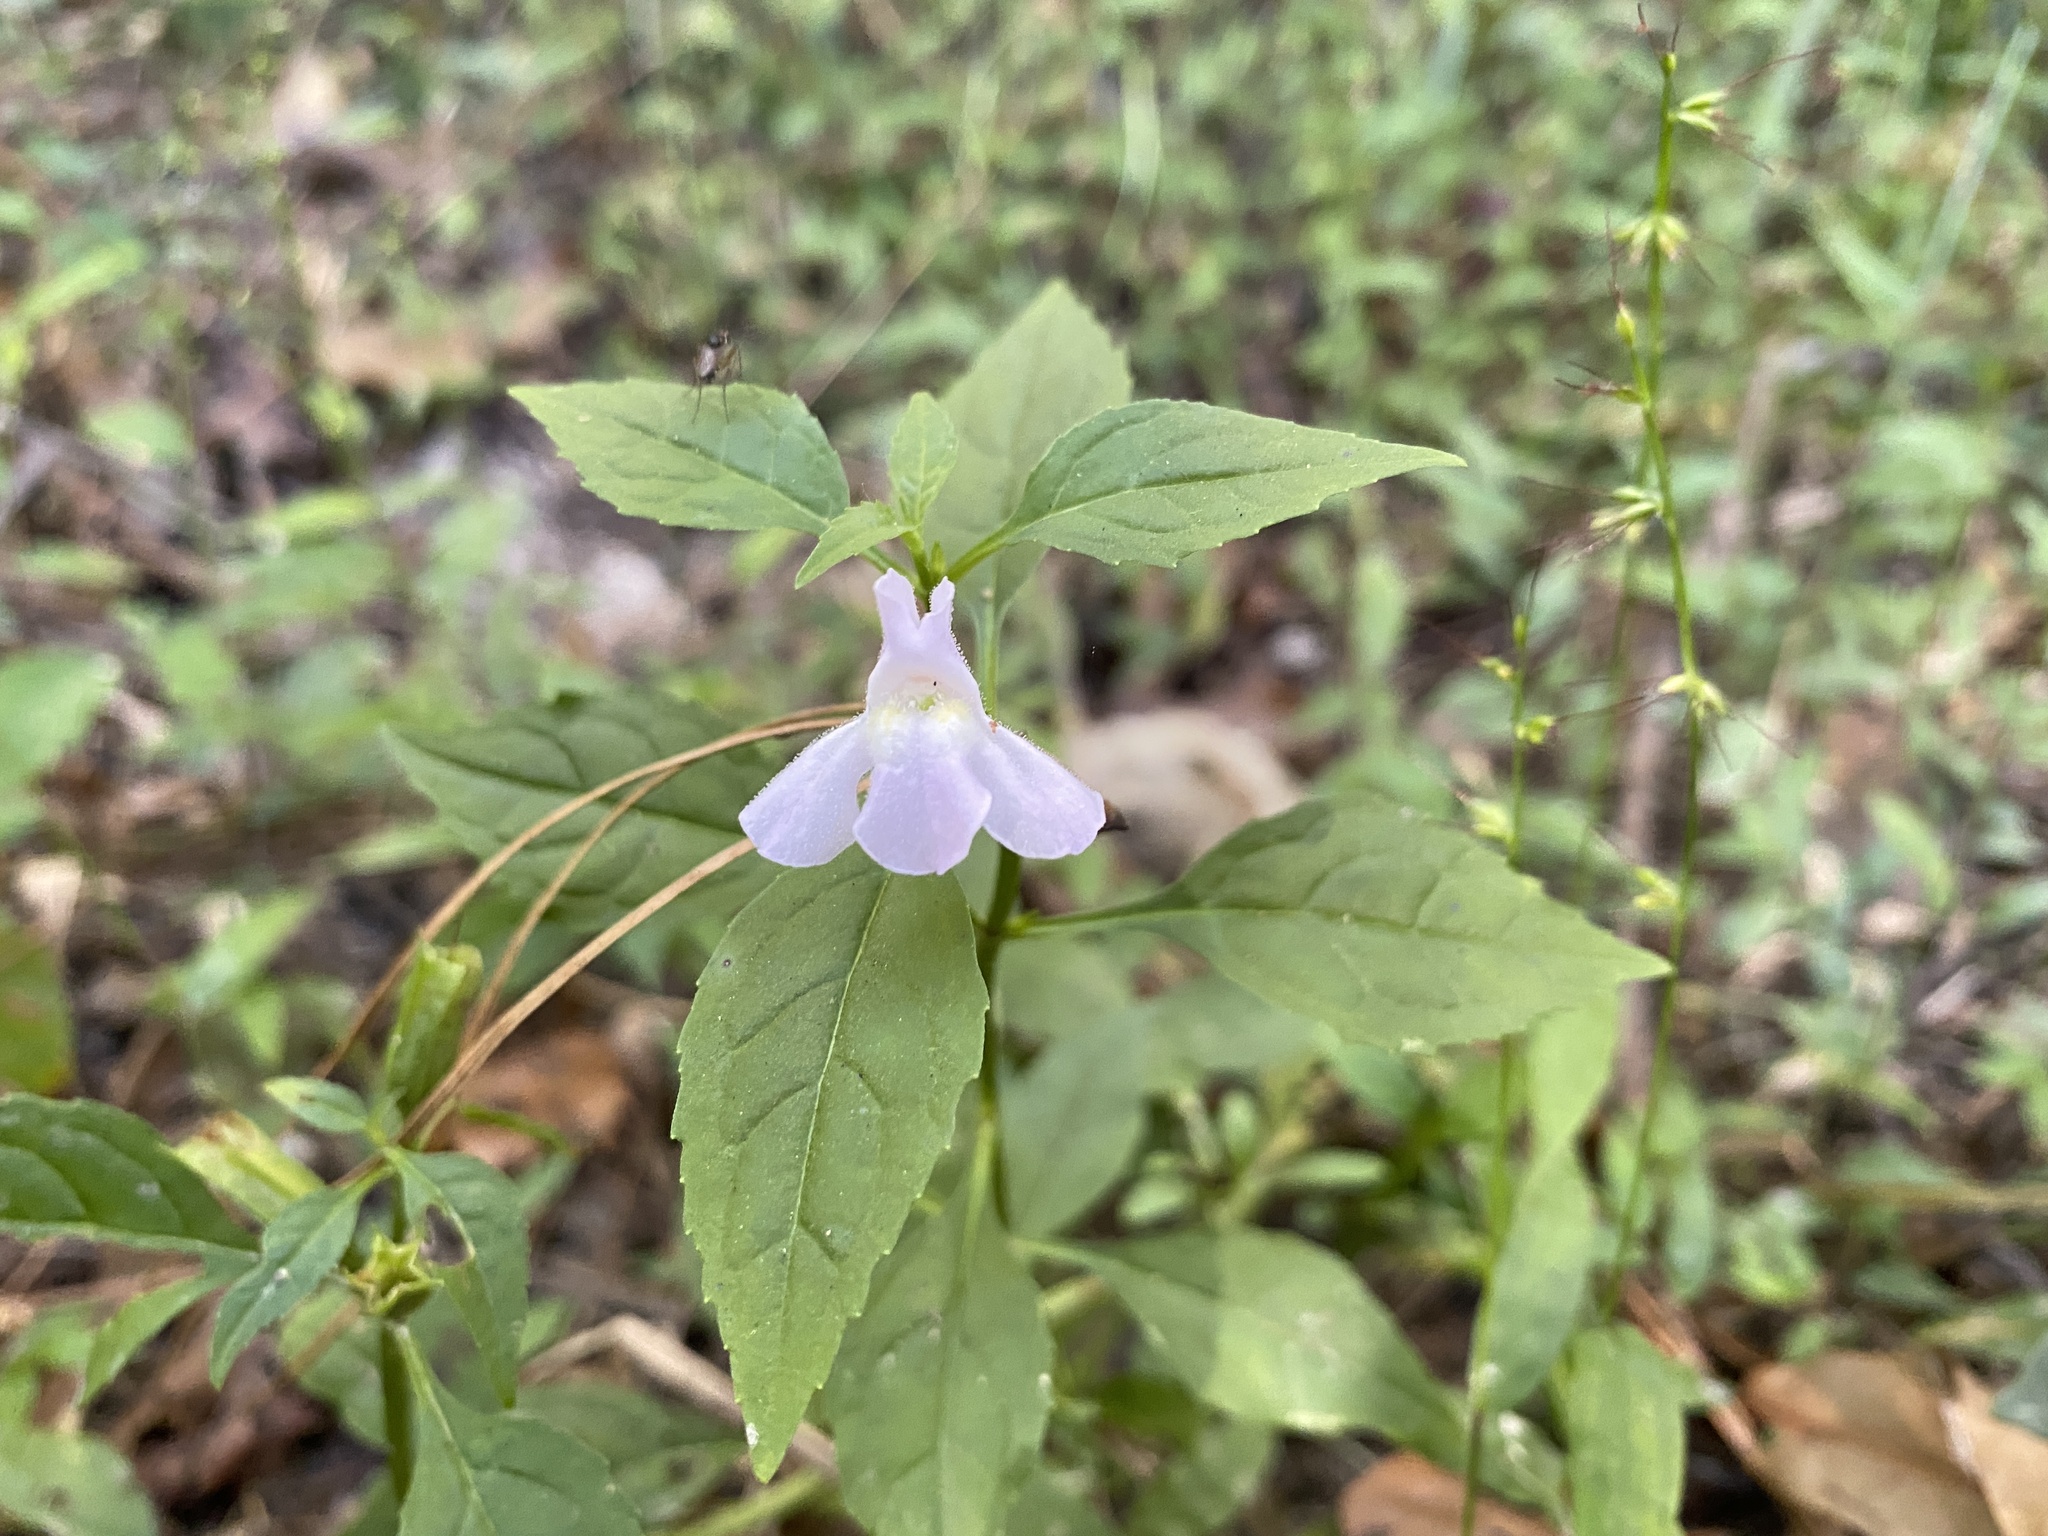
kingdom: Plantae
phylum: Tracheophyta
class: Magnoliopsida
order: Lamiales
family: Phrymaceae
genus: Mimulus
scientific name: Mimulus alatus
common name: Sharp-wing monkey-flower
